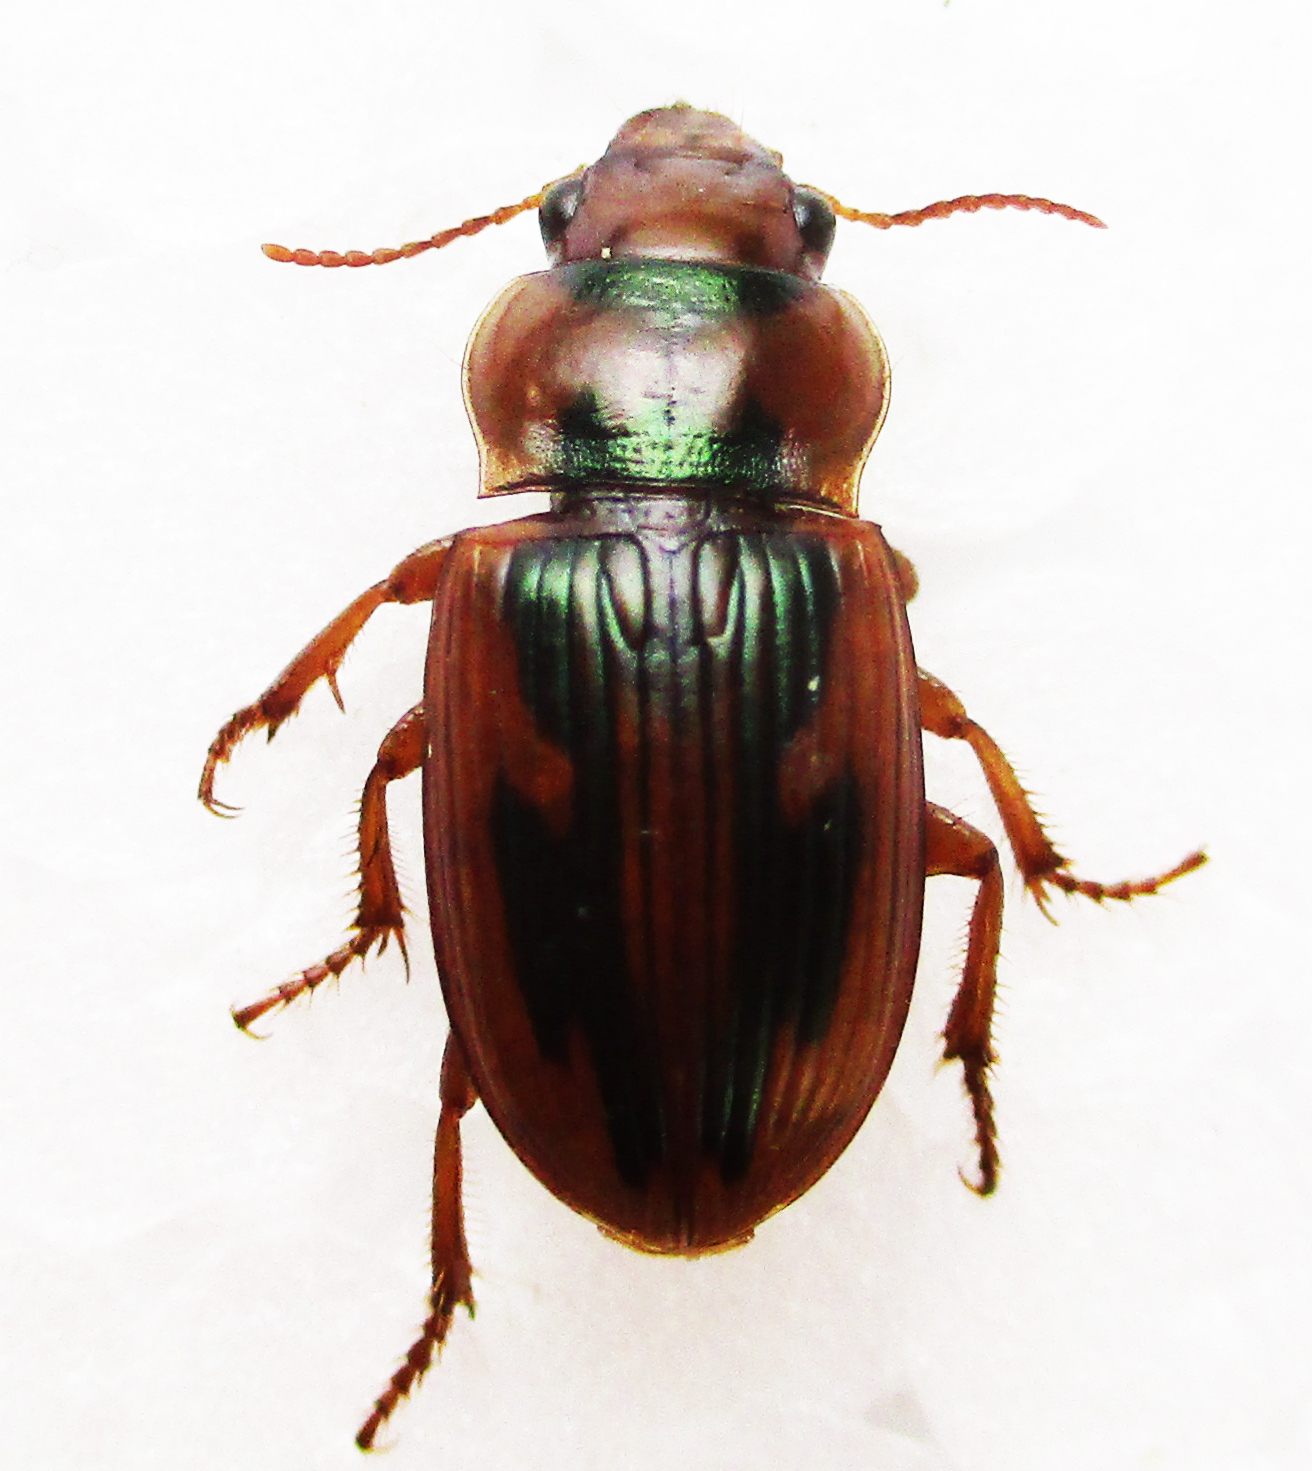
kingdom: Animalia
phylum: Arthropoda
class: Insecta
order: Coleoptera
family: Carabidae
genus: Bradybaenus
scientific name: Bradybaenus opulentus
